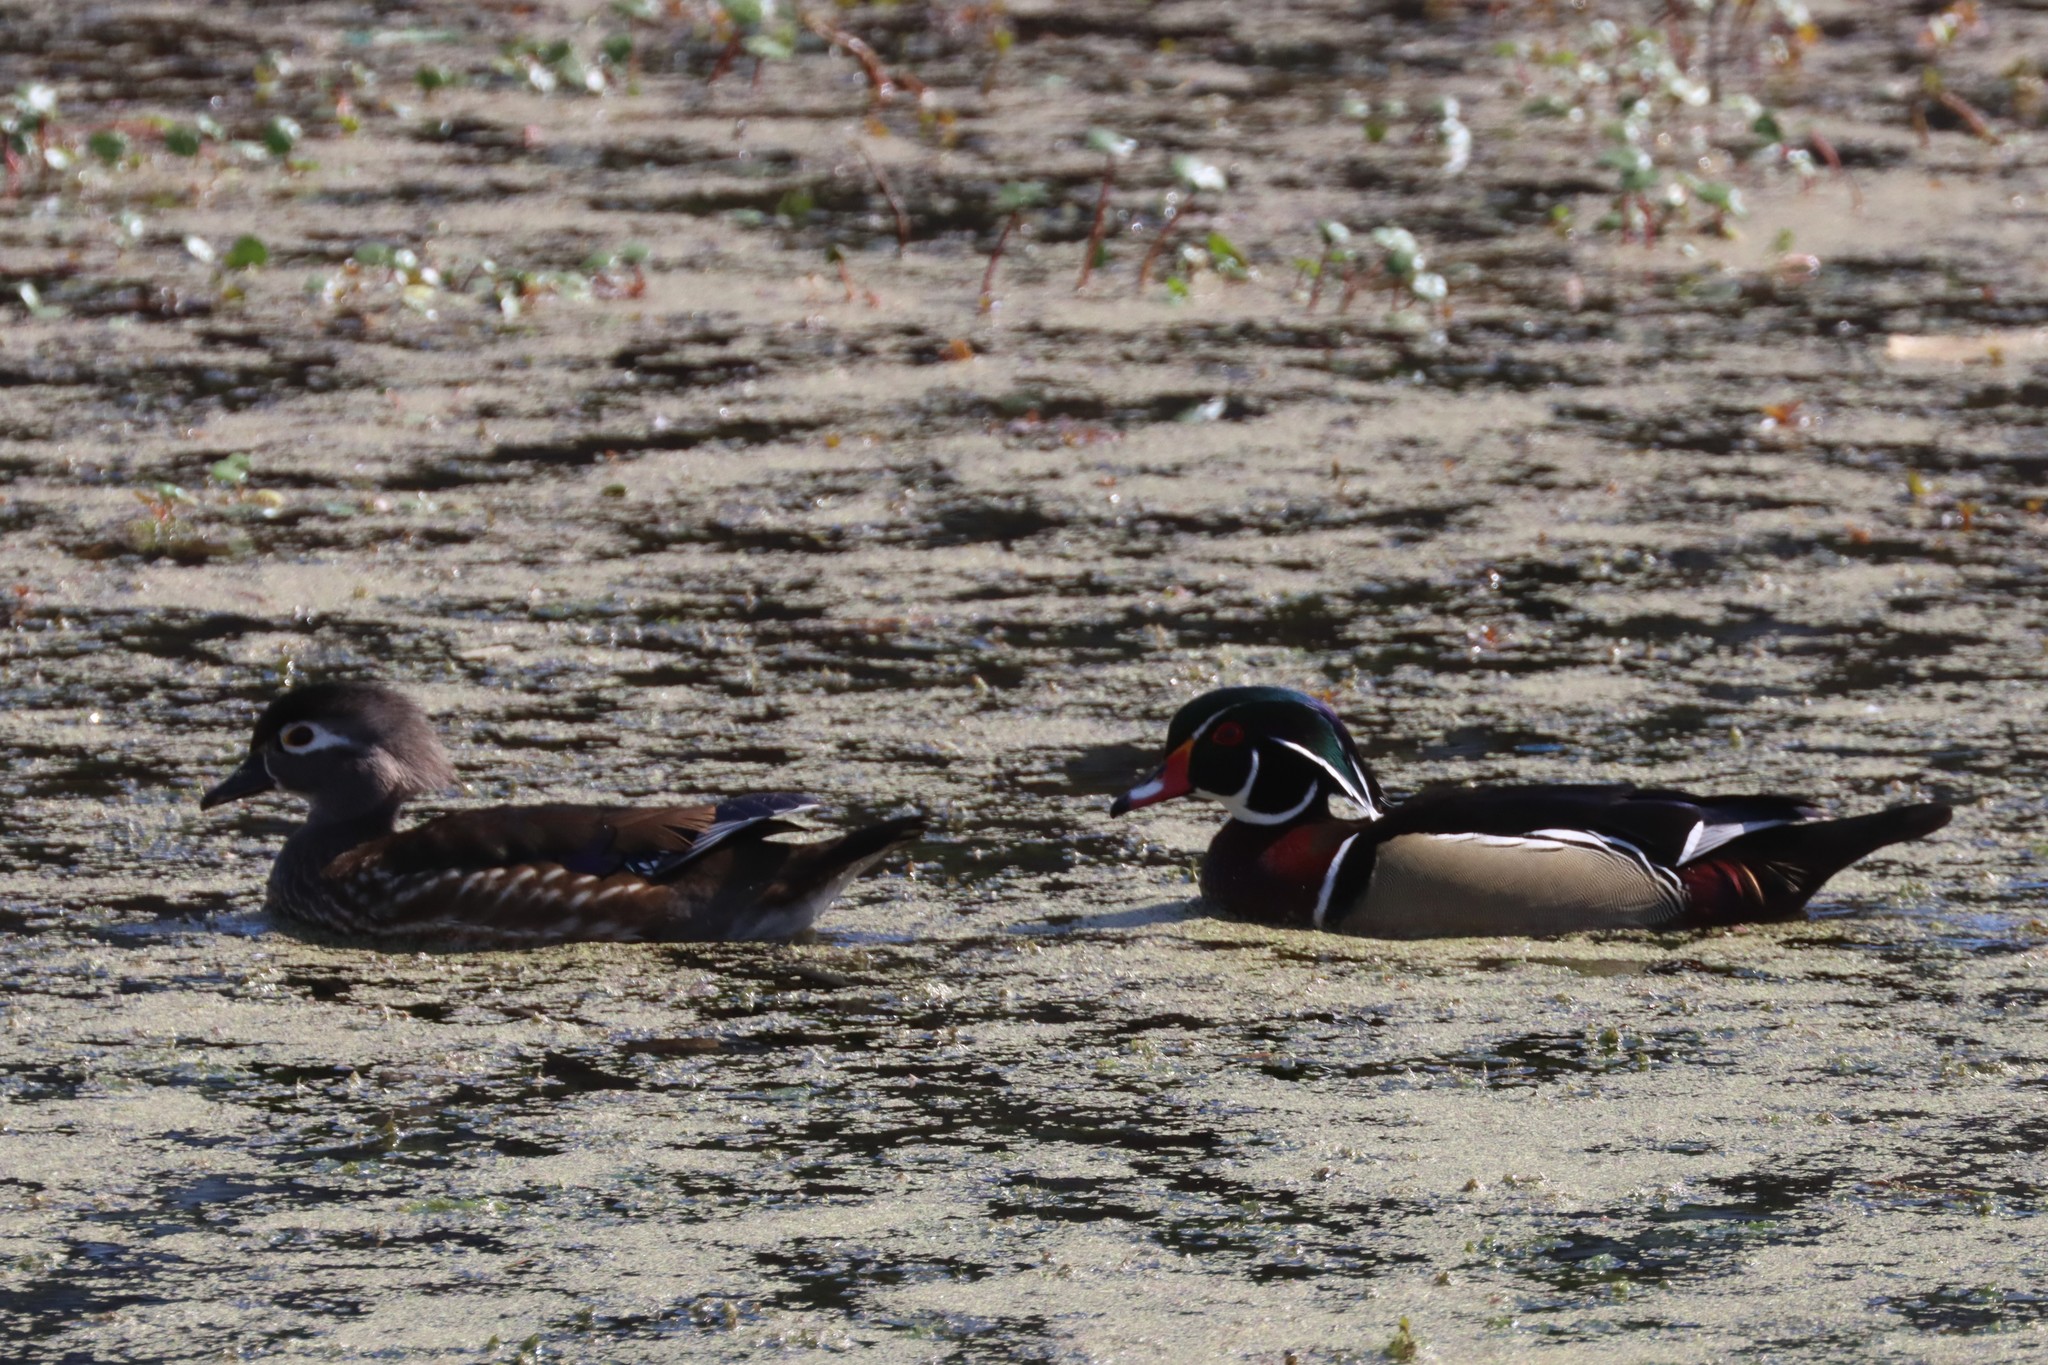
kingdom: Animalia
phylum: Chordata
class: Aves
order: Anseriformes
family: Anatidae
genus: Aix
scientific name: Aix sponsa
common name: Wood duck
